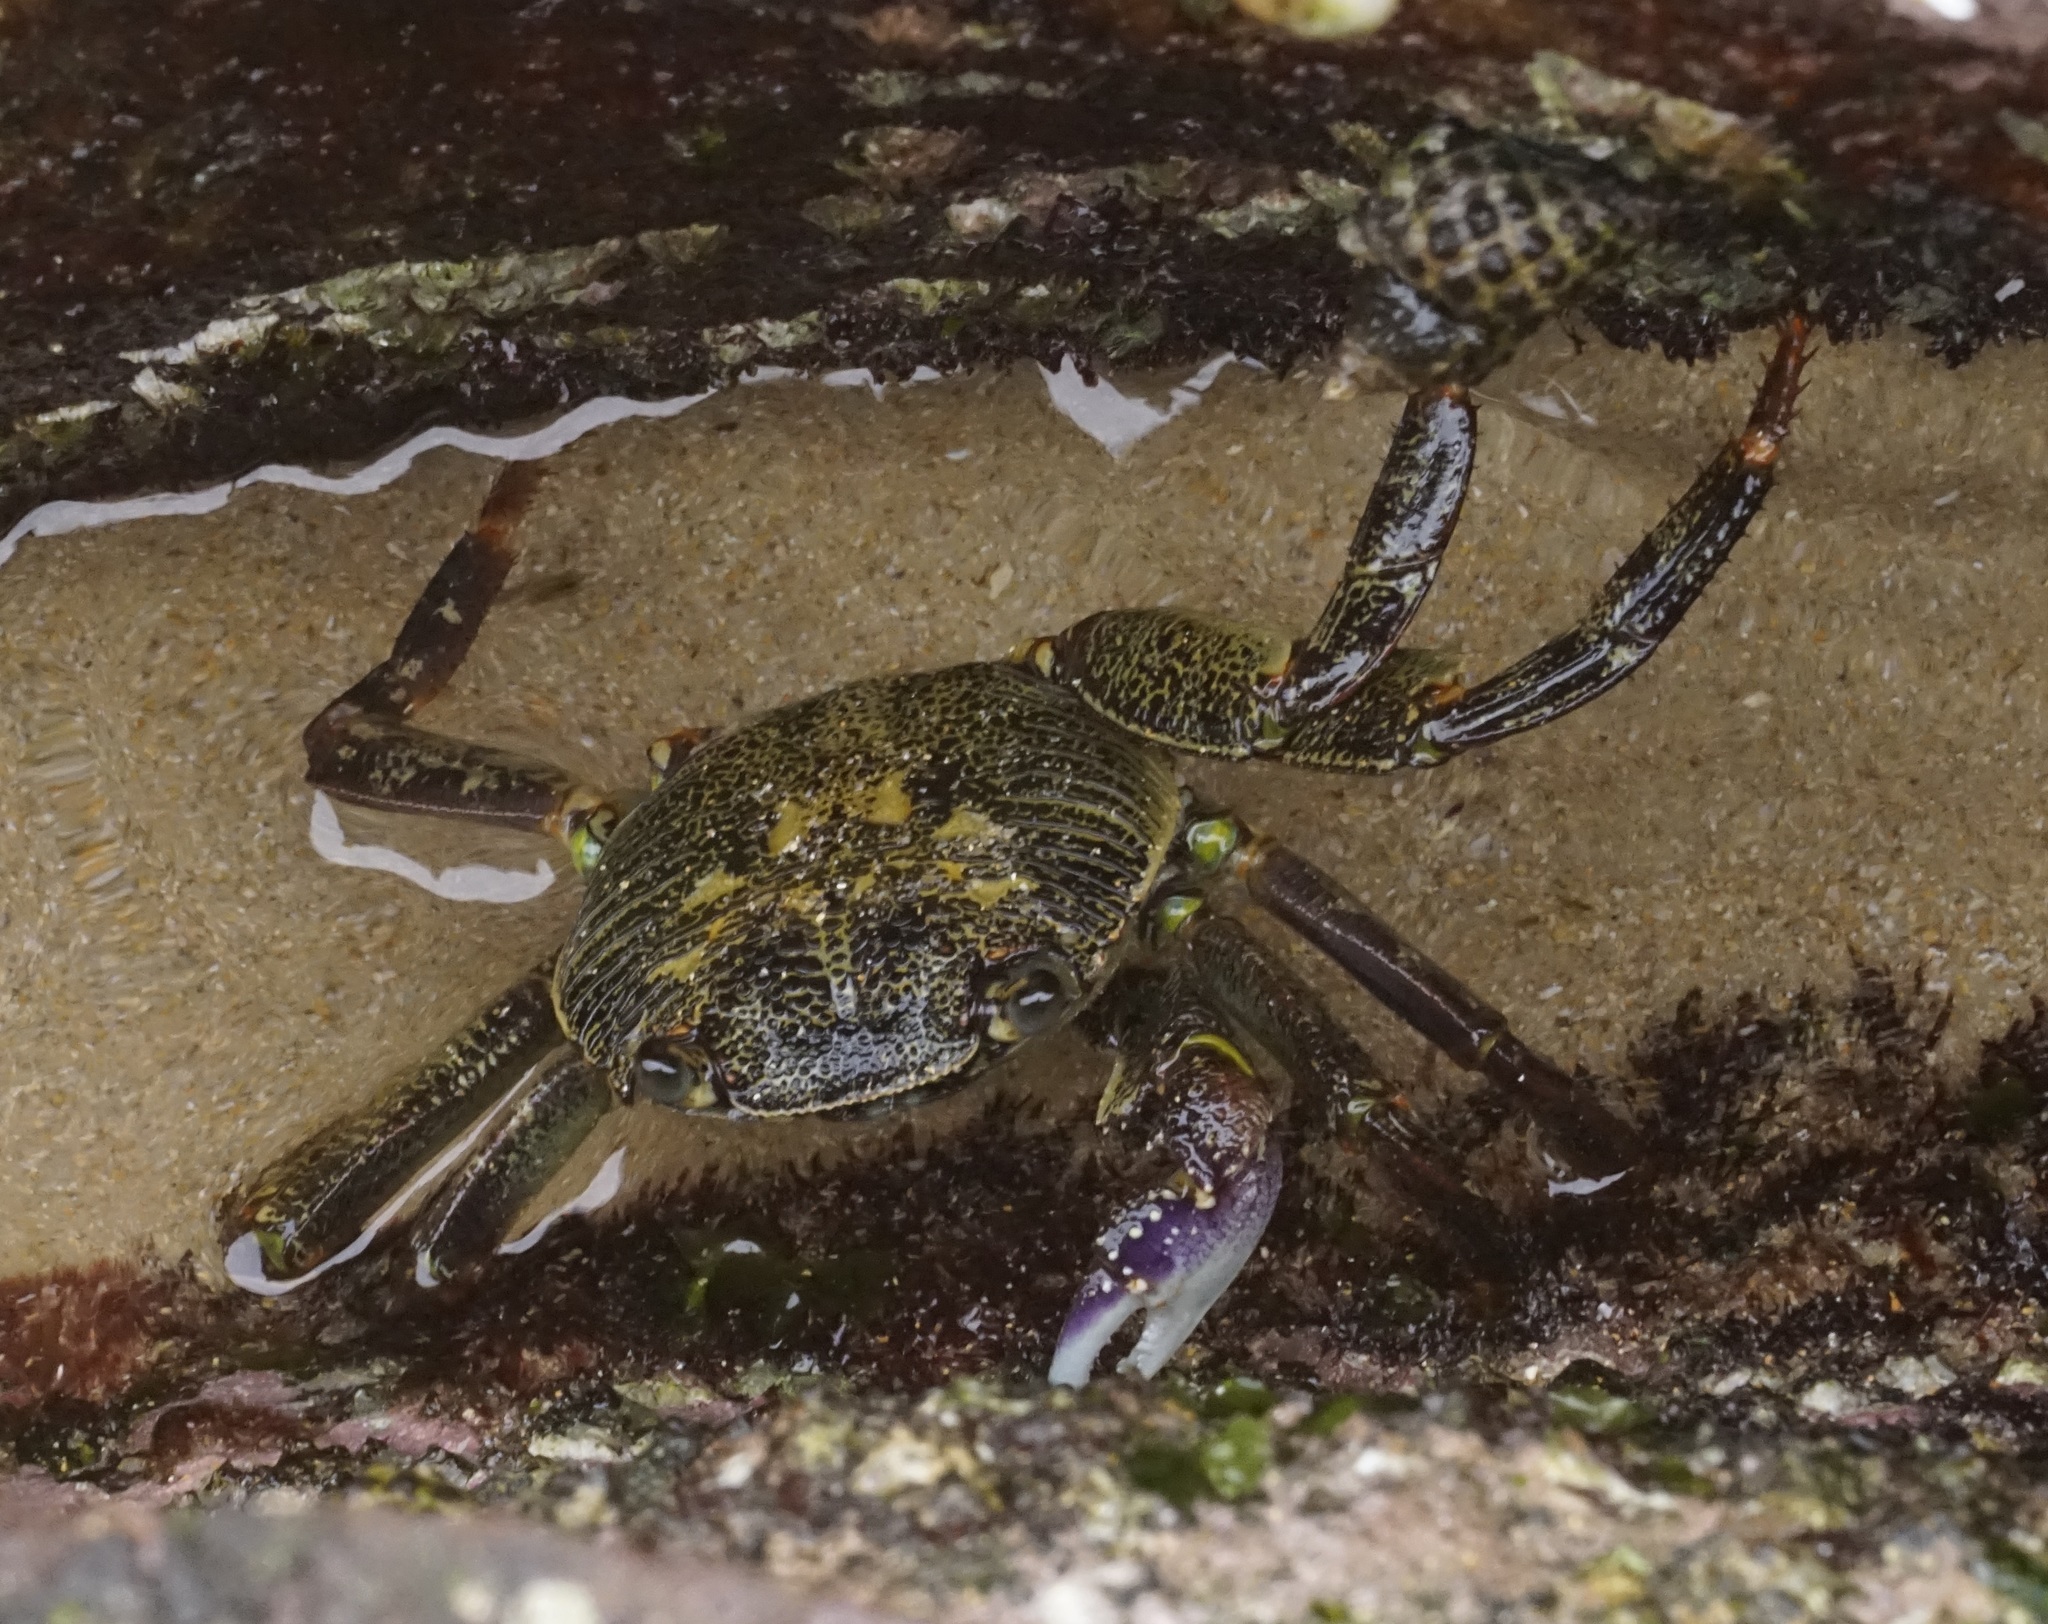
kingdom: Animalia
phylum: Arthropoda
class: Malacostraca
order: Decapoda
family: Grapsidae
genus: Leptograpsus
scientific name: Leptograpsus variegatus
